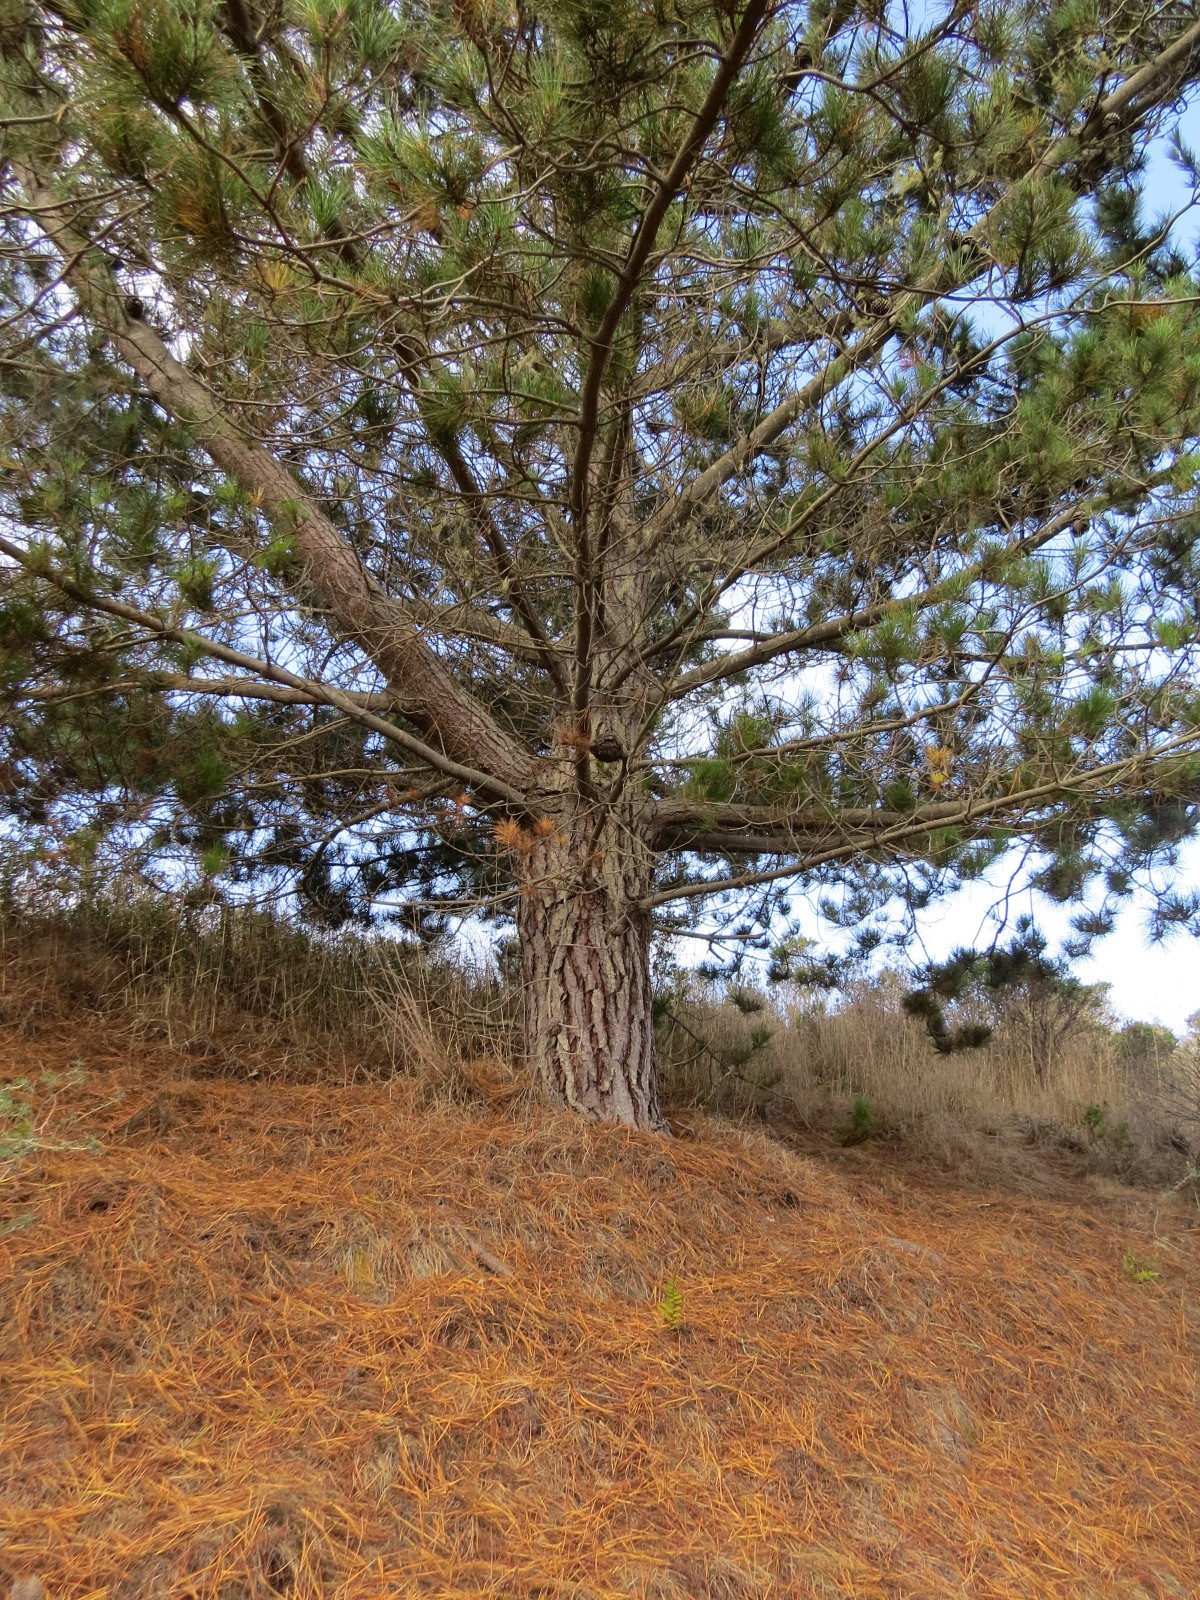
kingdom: Fungi
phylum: Basidiomycota
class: Pucciniomycetes
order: Pucciniales
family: Cronartiaceae
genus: Cronartium
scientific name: Cronartium harknessii
